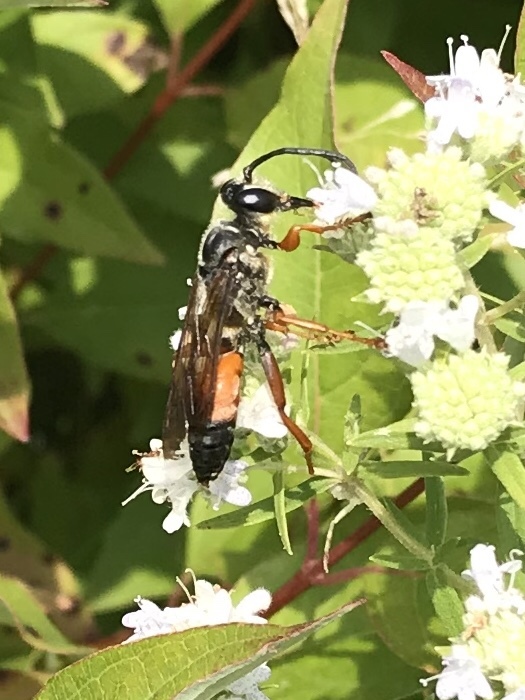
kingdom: Animalia
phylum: Arthropoda
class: Insecta
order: Hymenoptera
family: Sphecidae
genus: Sphex
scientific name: Sphex ichneumoneus
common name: Great golden digger wasp
